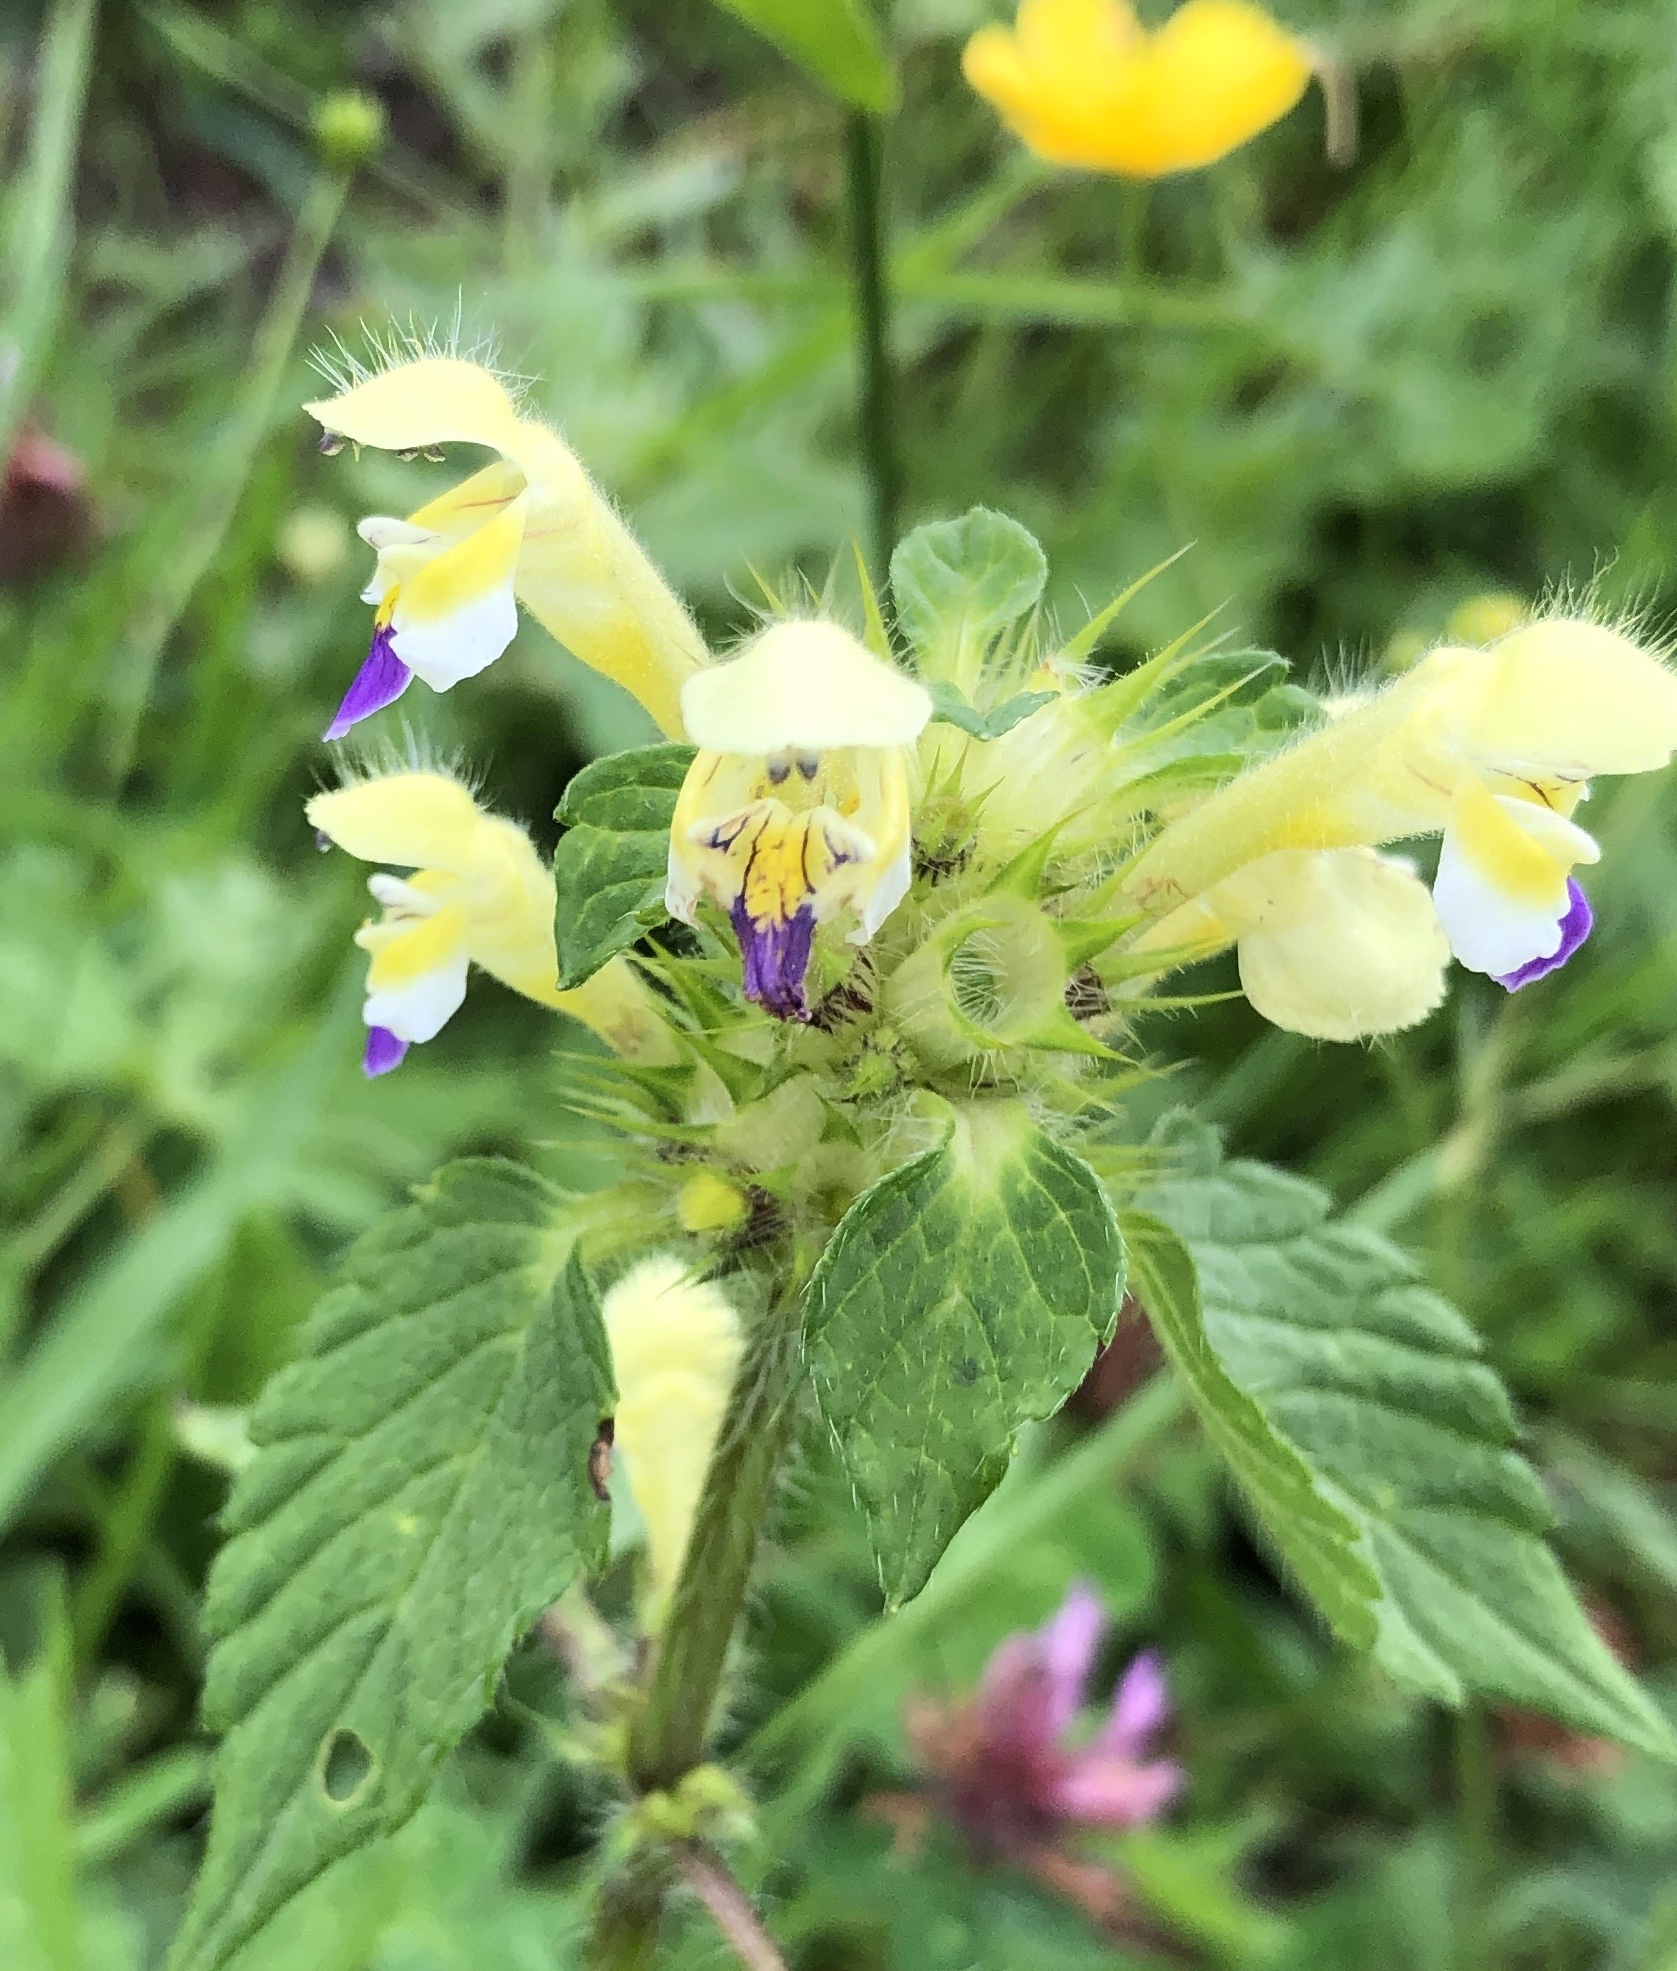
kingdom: Plantae
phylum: Tracheophyta
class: Magnoliopsida
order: Lamiales
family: Lamiaceae
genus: Galeopsis
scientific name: Galeopsis speciosa
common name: Large-flowered hemp-nettle
